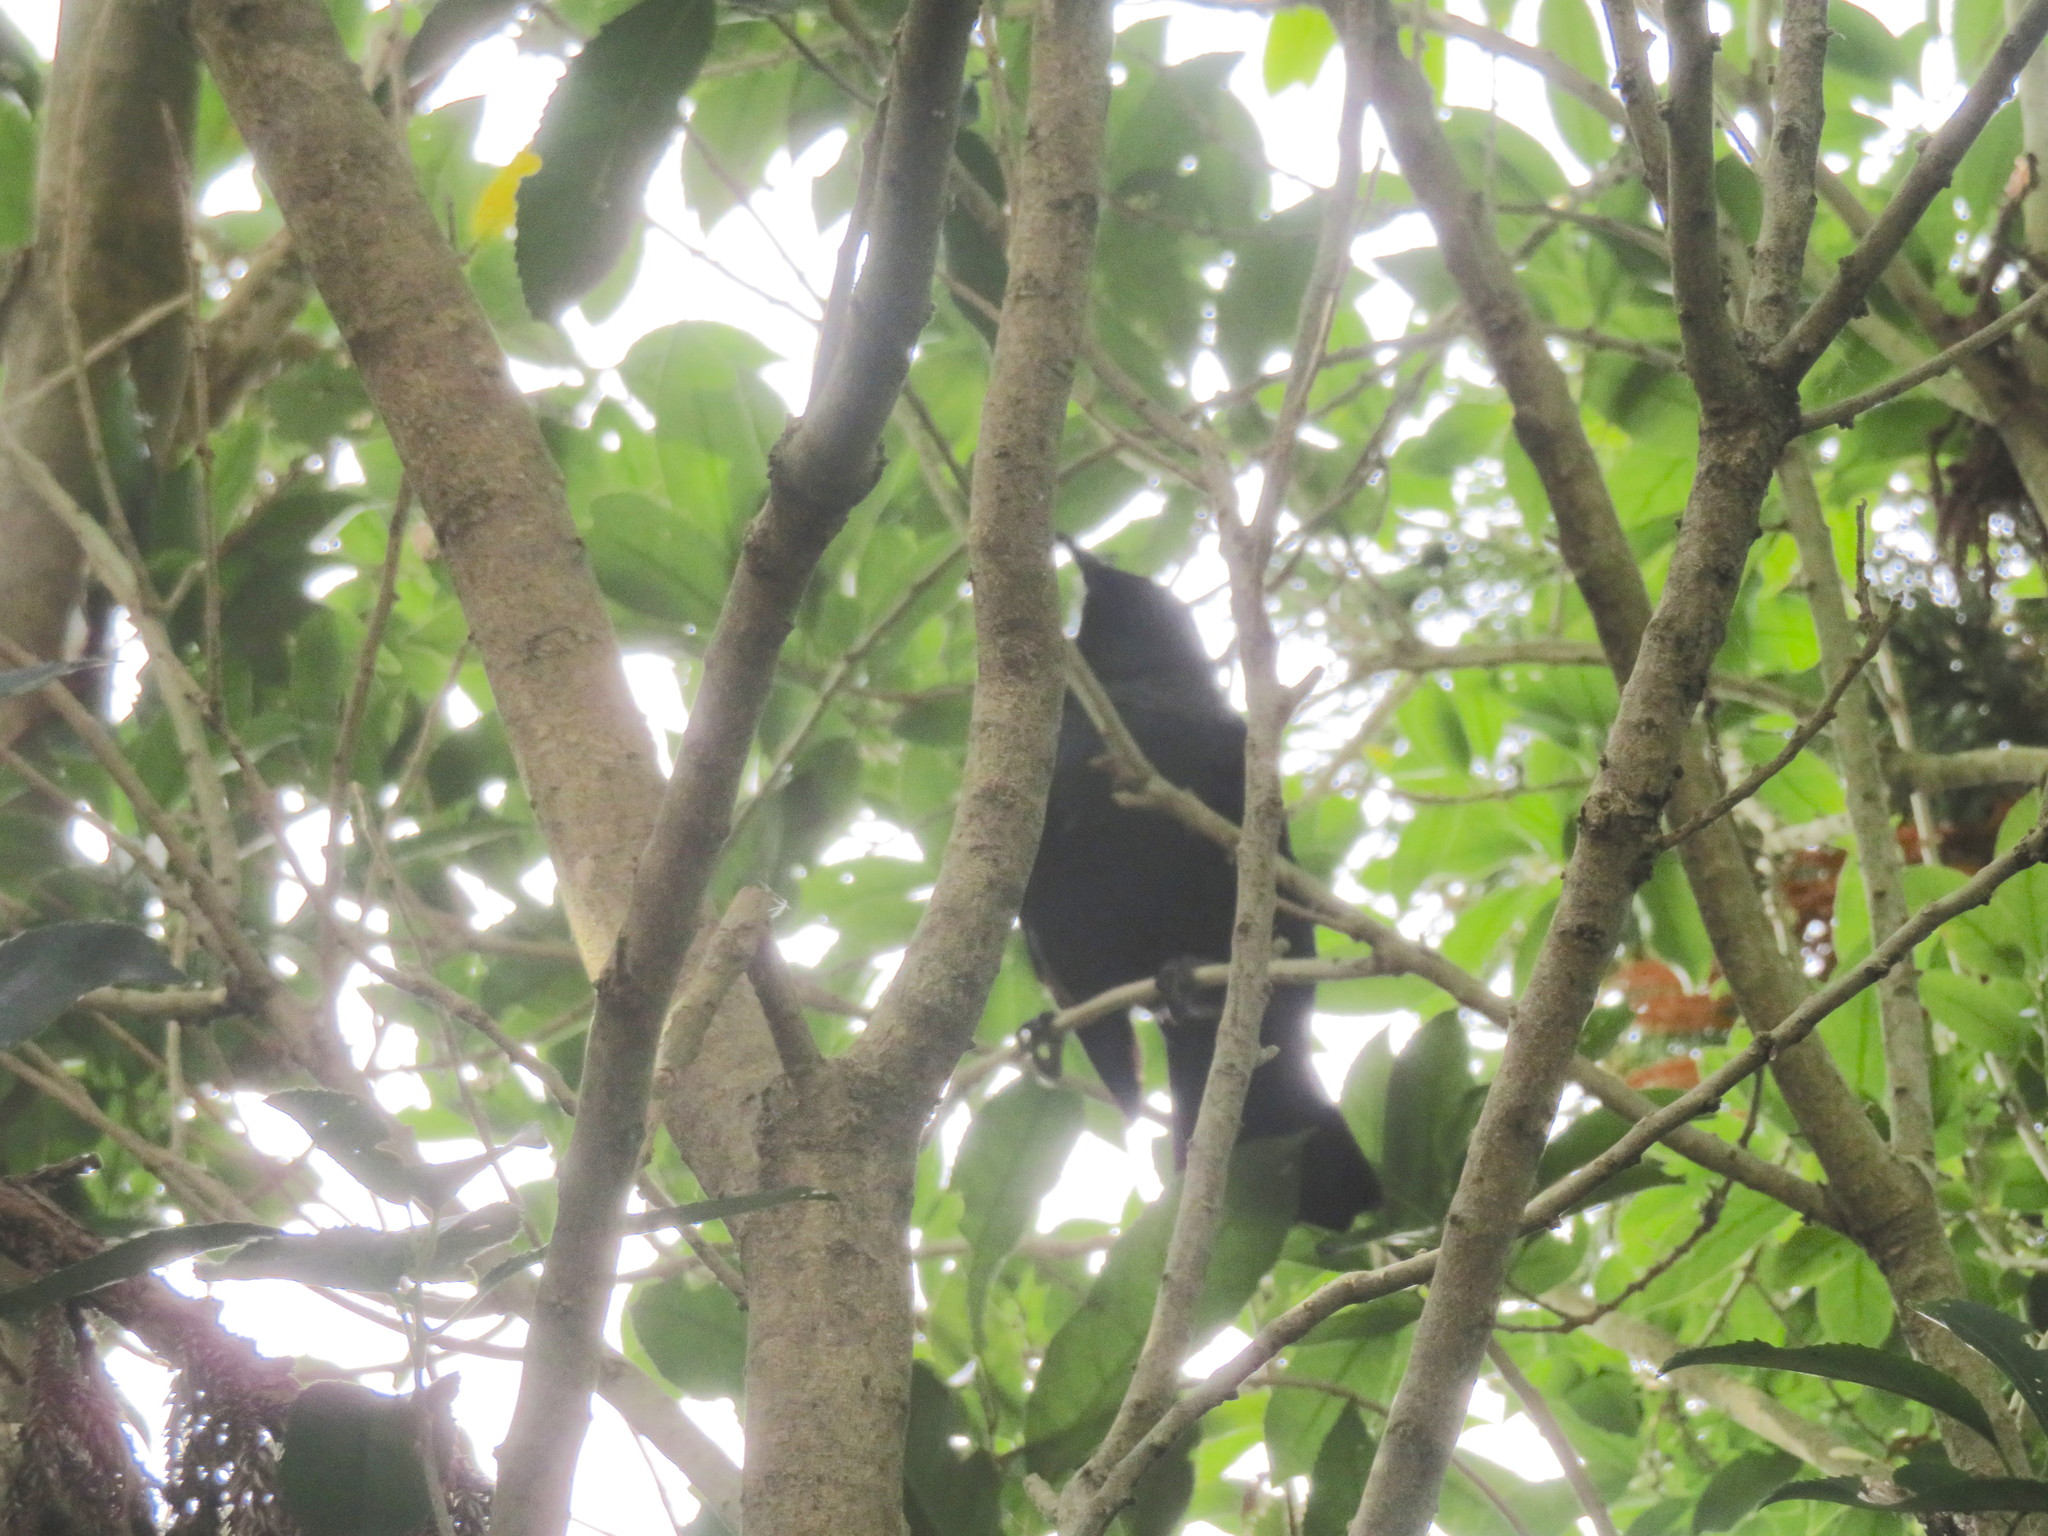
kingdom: Animalia
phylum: Chordata
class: Aves
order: Passeriformes
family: Meliphagidae
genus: Prosthemadera
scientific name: Prosthemadera novaeseelandiae
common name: Tui
